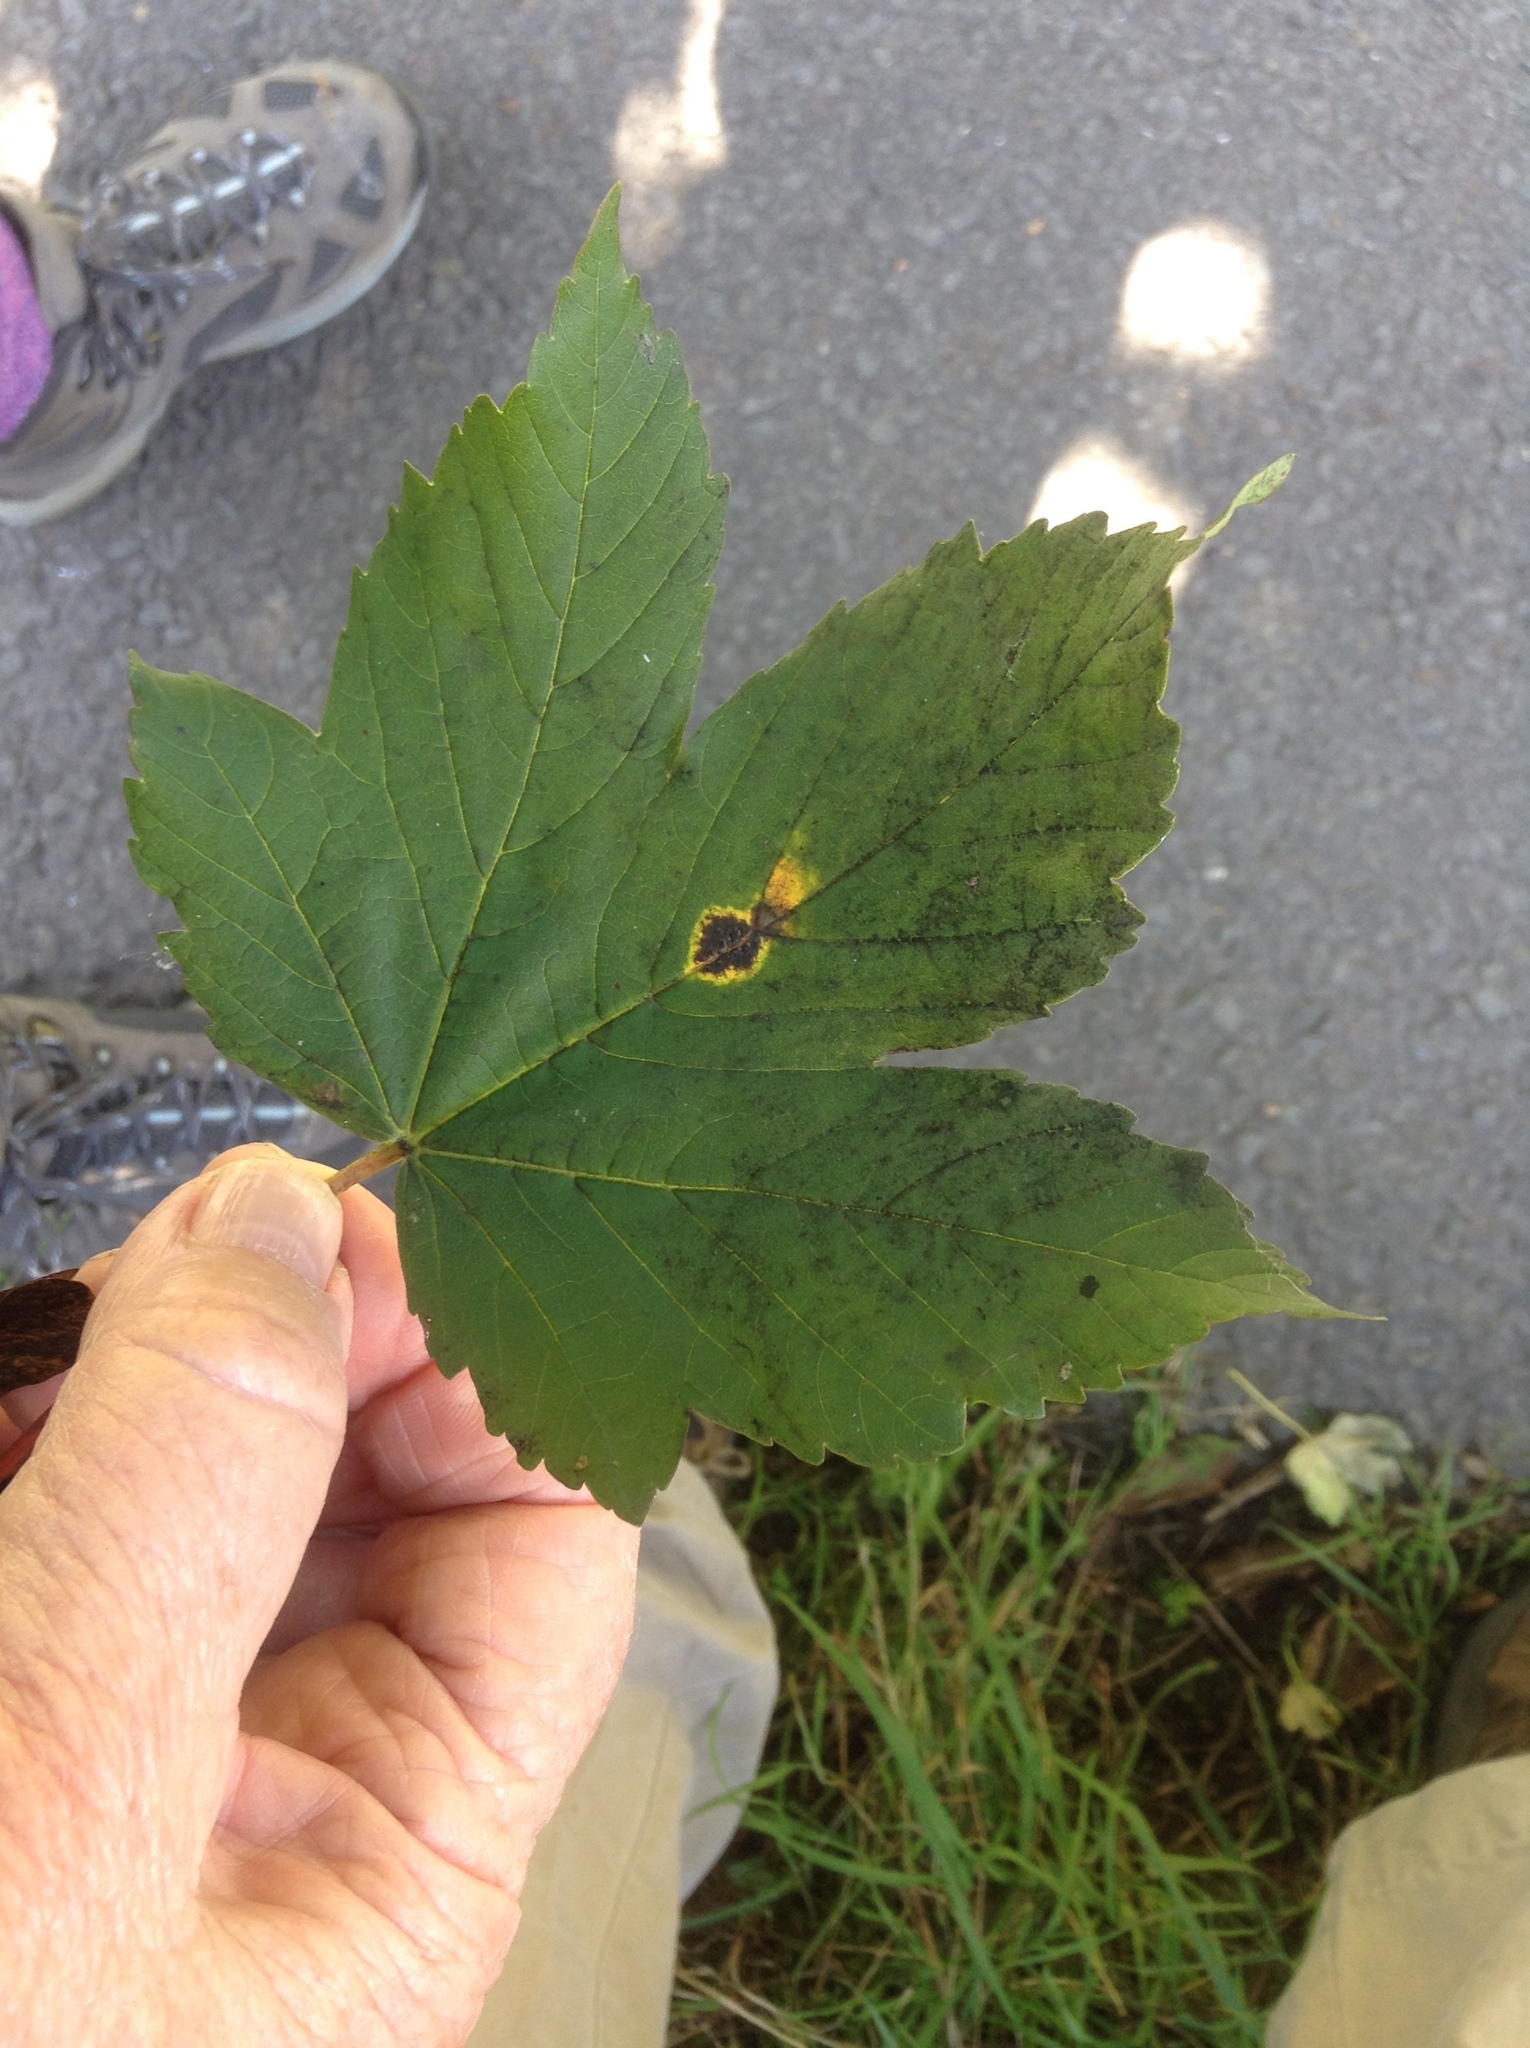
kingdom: Plantae
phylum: Tracheophyta
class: Magnoliopsida
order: Sapindales
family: Sapindaceae
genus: Acer
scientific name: Acer pseudoplatanus
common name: Sycamore
